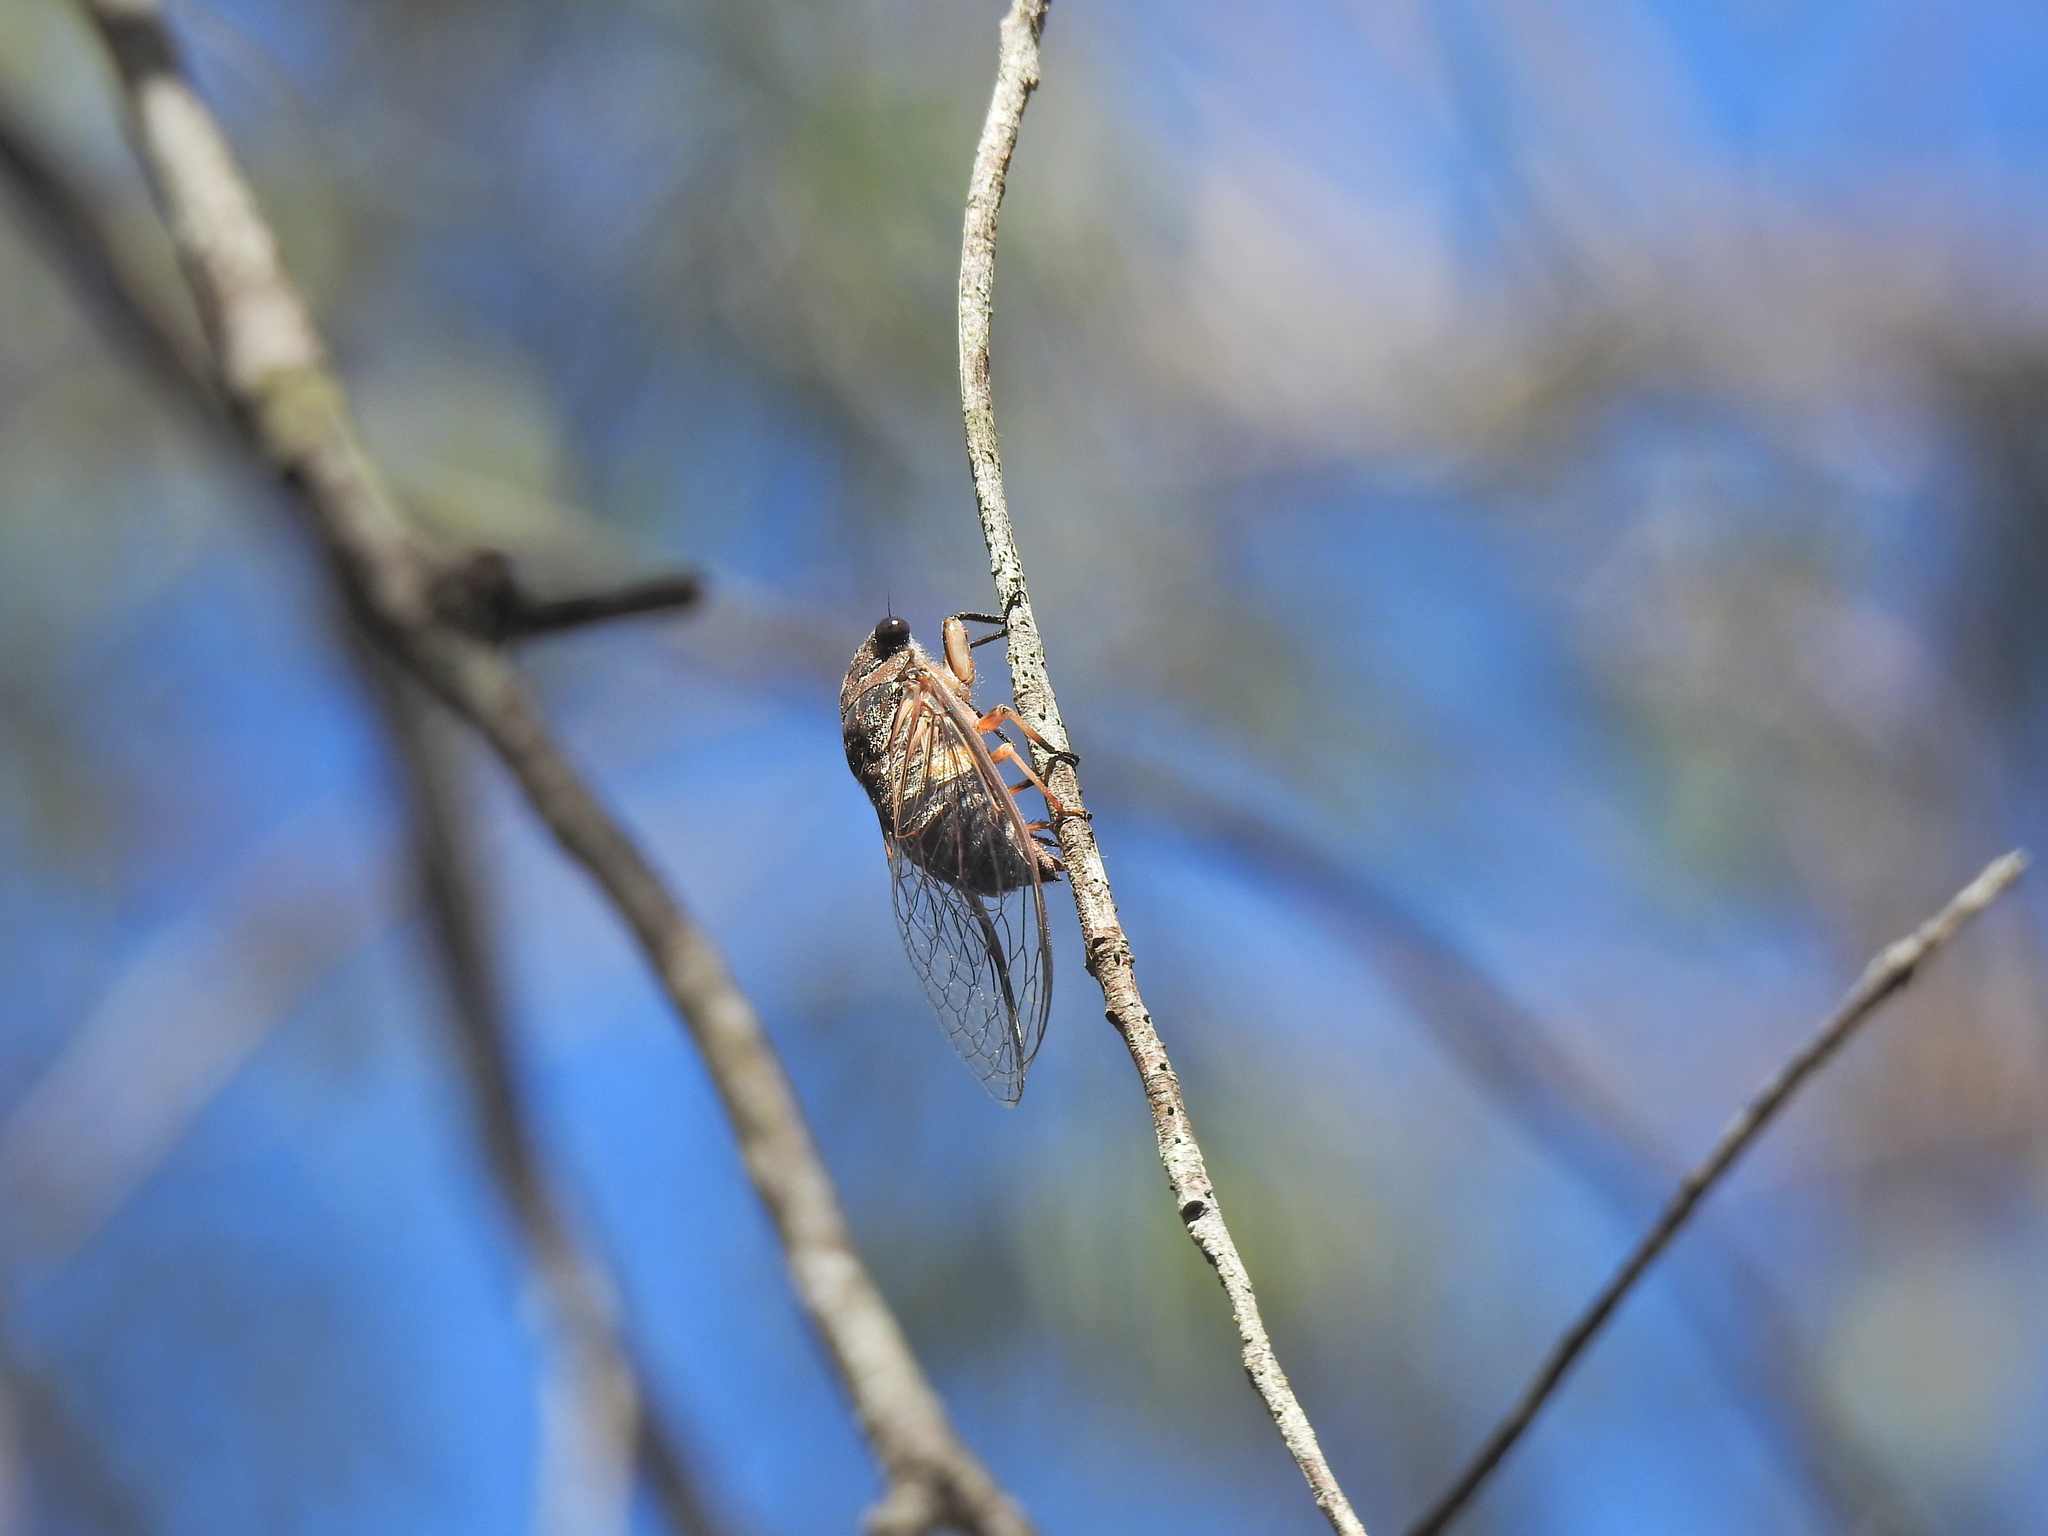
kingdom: Animalia
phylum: Arthropoda
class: Insecta
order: Hemiptera
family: Cicadidae
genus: Psaltoda
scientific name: Psaltoda harrisii
